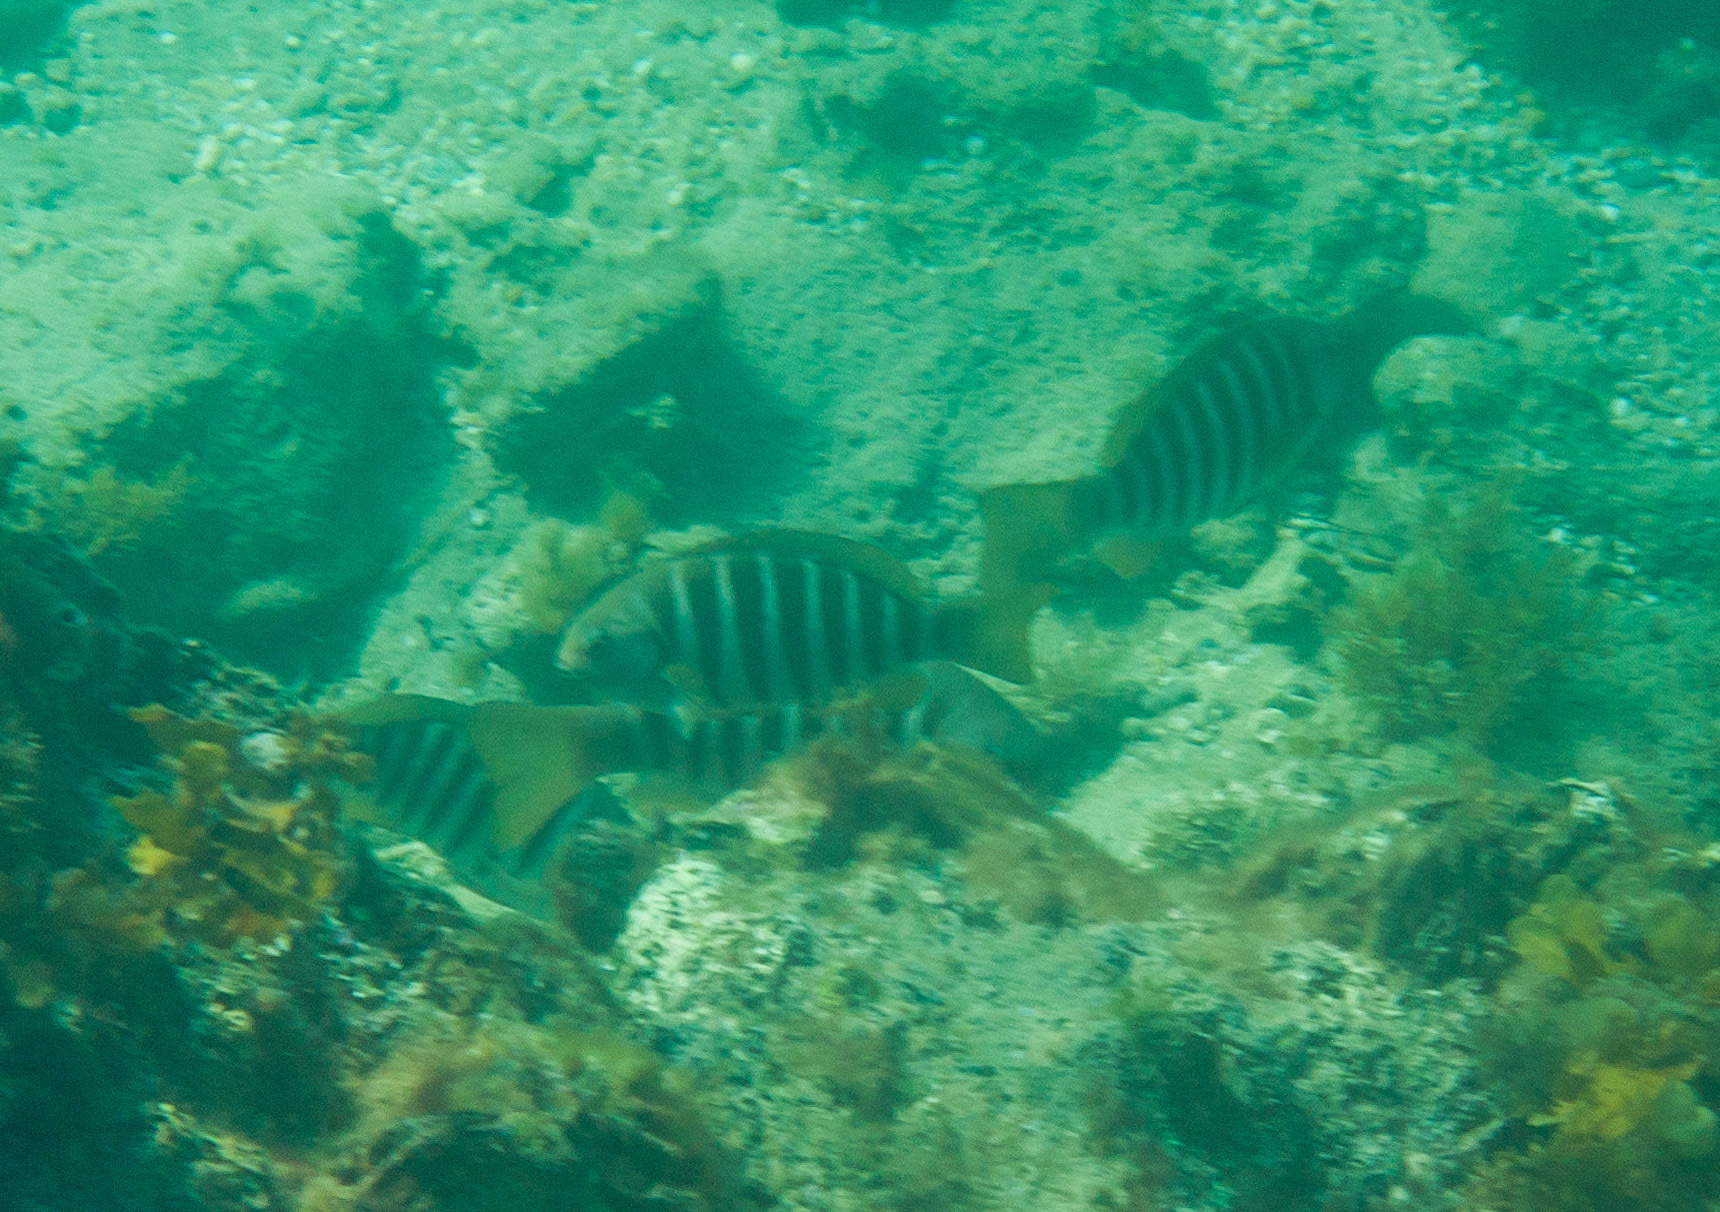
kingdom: Animalia
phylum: Chordata
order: Perciformes
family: Kyphosidae
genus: Girella
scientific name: Girella zebra
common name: Stripey bream
